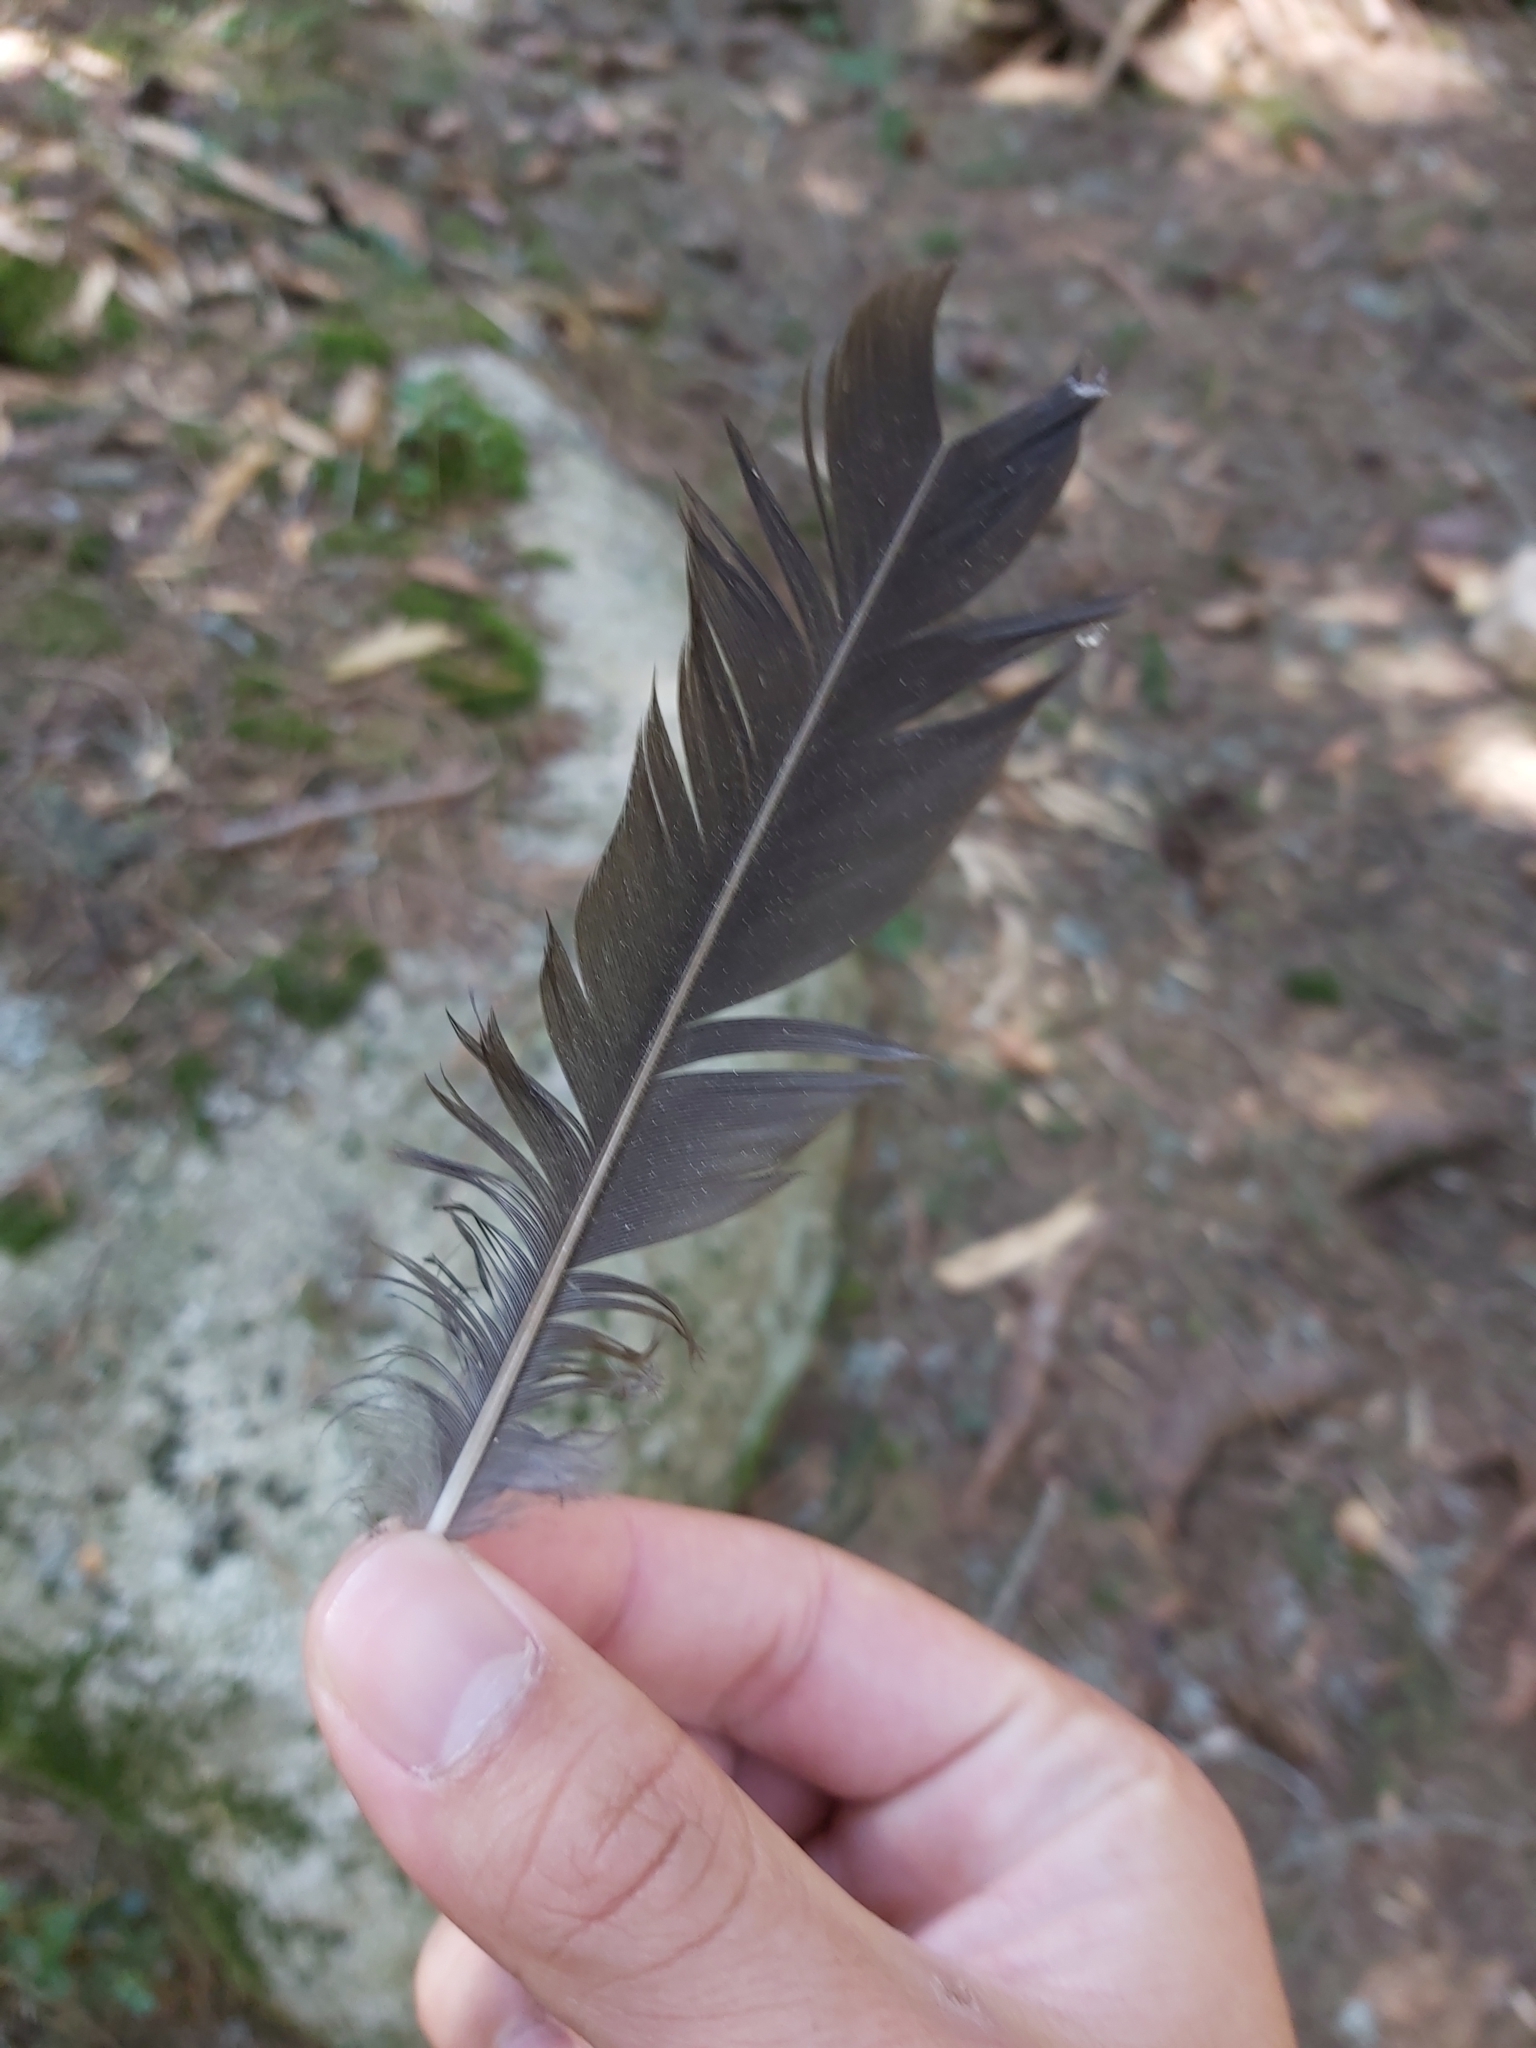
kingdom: Animalia
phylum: Chordata
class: Aves
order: Passeriformes
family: Corvidae
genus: Nucifraga
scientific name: Nucifraga caryocatactes
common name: Spotted nutcracker
